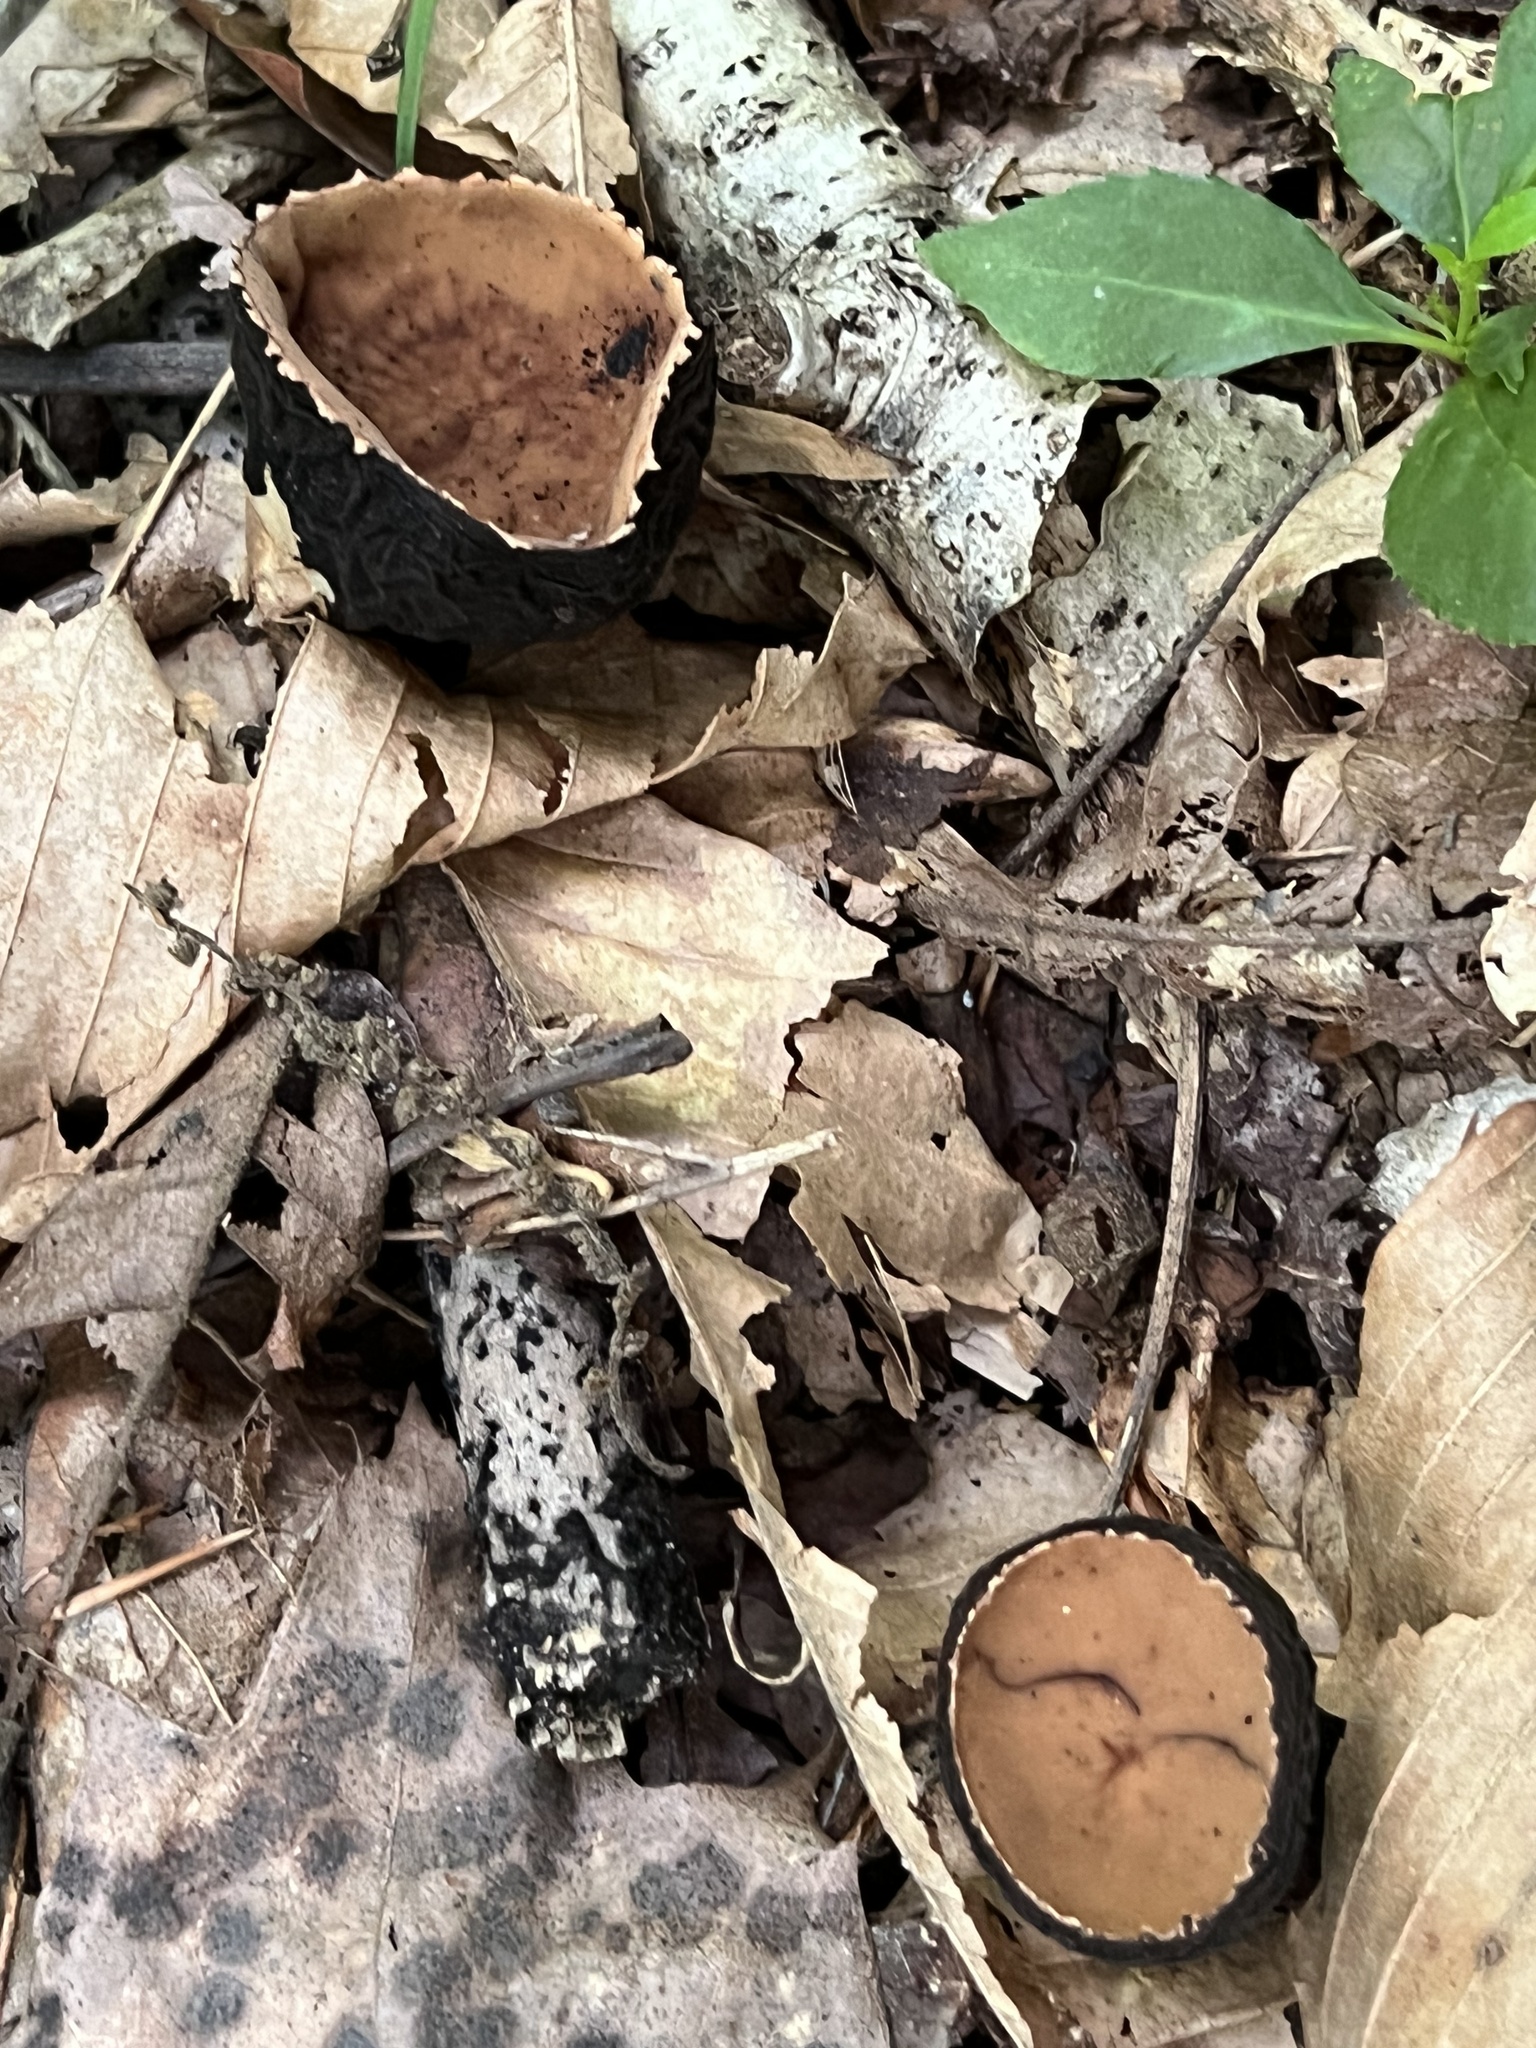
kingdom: Fungi
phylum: Ascomycota
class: Pezizomycetes
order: Pezizales
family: Sarcosomataceae
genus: Galiella
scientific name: Galiella rufa
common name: Hairy rubber cup
